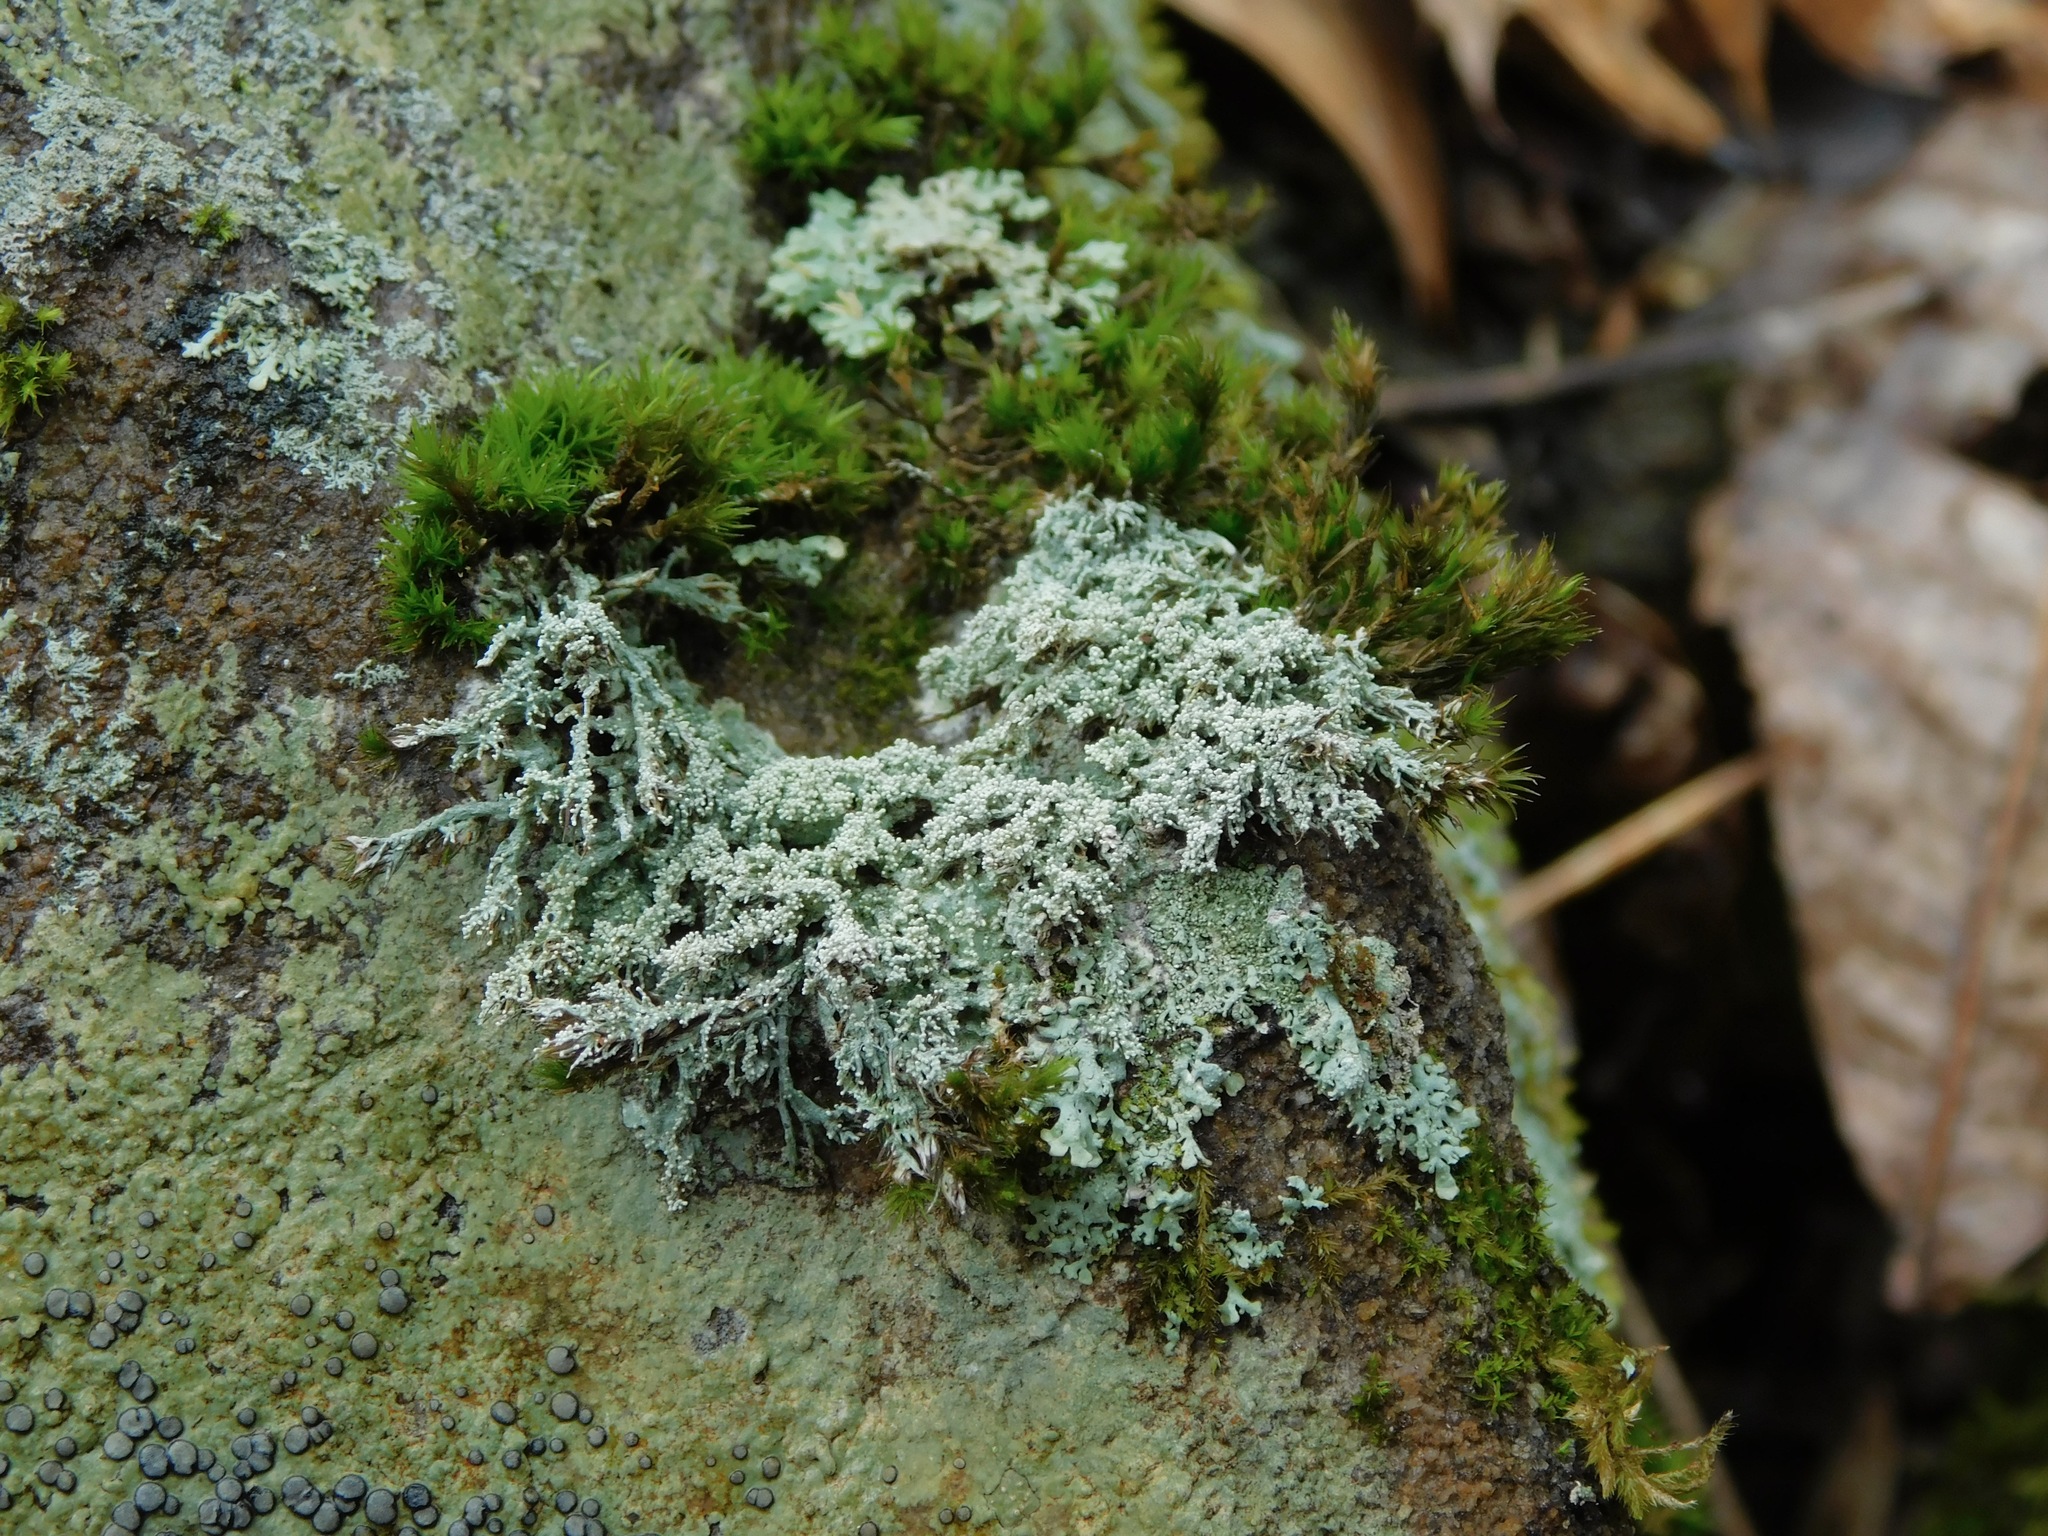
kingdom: Fungi
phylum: Ascomycota
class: Lecanoromycetes
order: Pertusariales
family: Ochrolechiaceae
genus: Ochrolechia
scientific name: Ochrolechia yasudae
